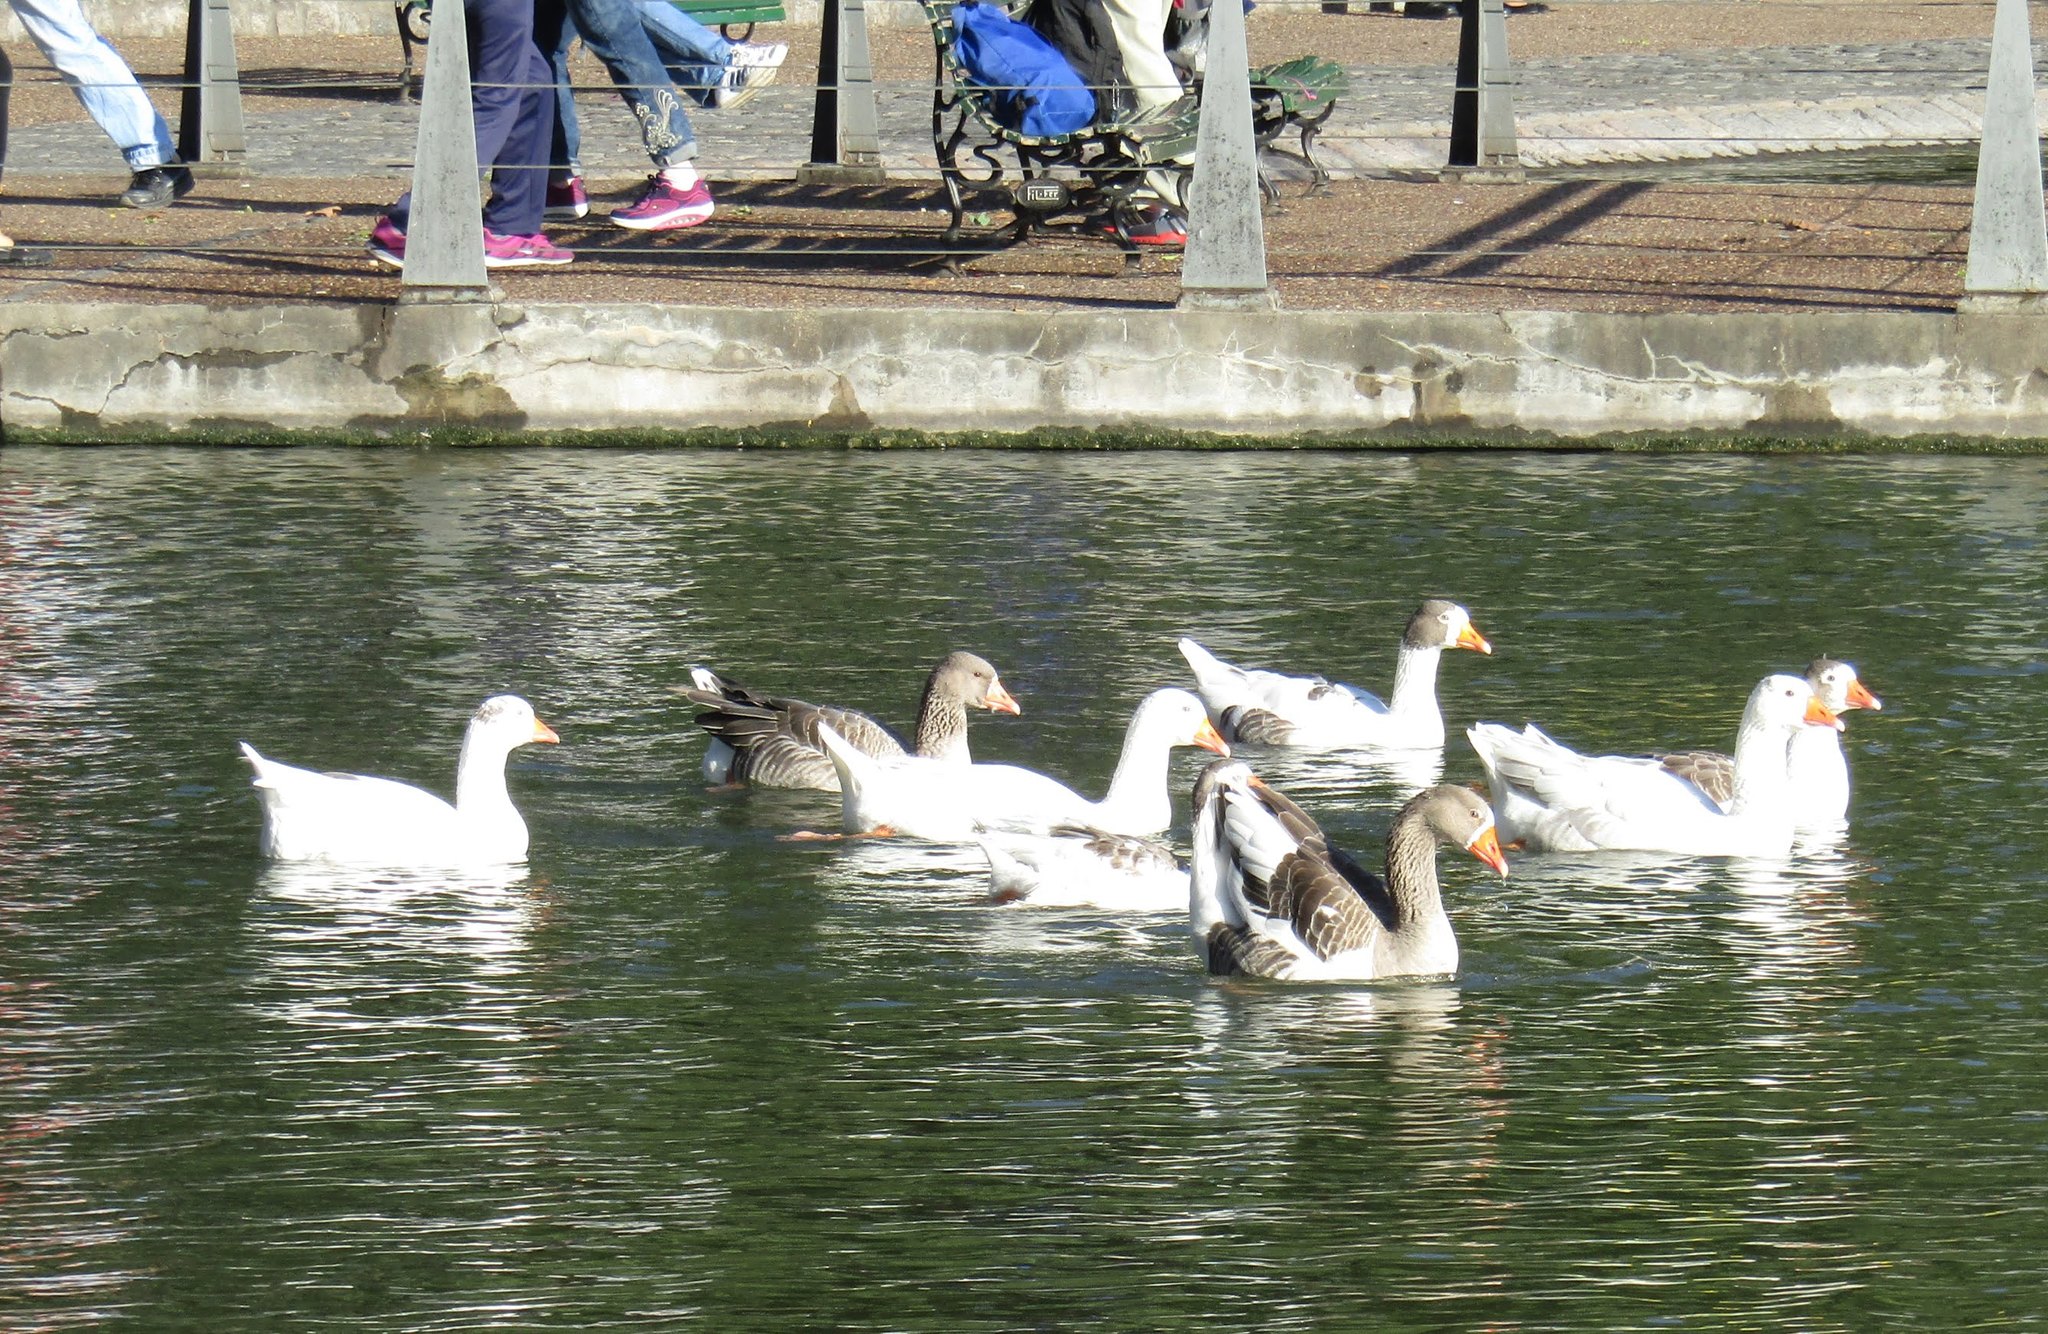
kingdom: Animalia
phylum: Chordata
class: Aves
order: Anseriformes
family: Anatidae
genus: Anser
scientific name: Anser anser
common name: Greylag goose
